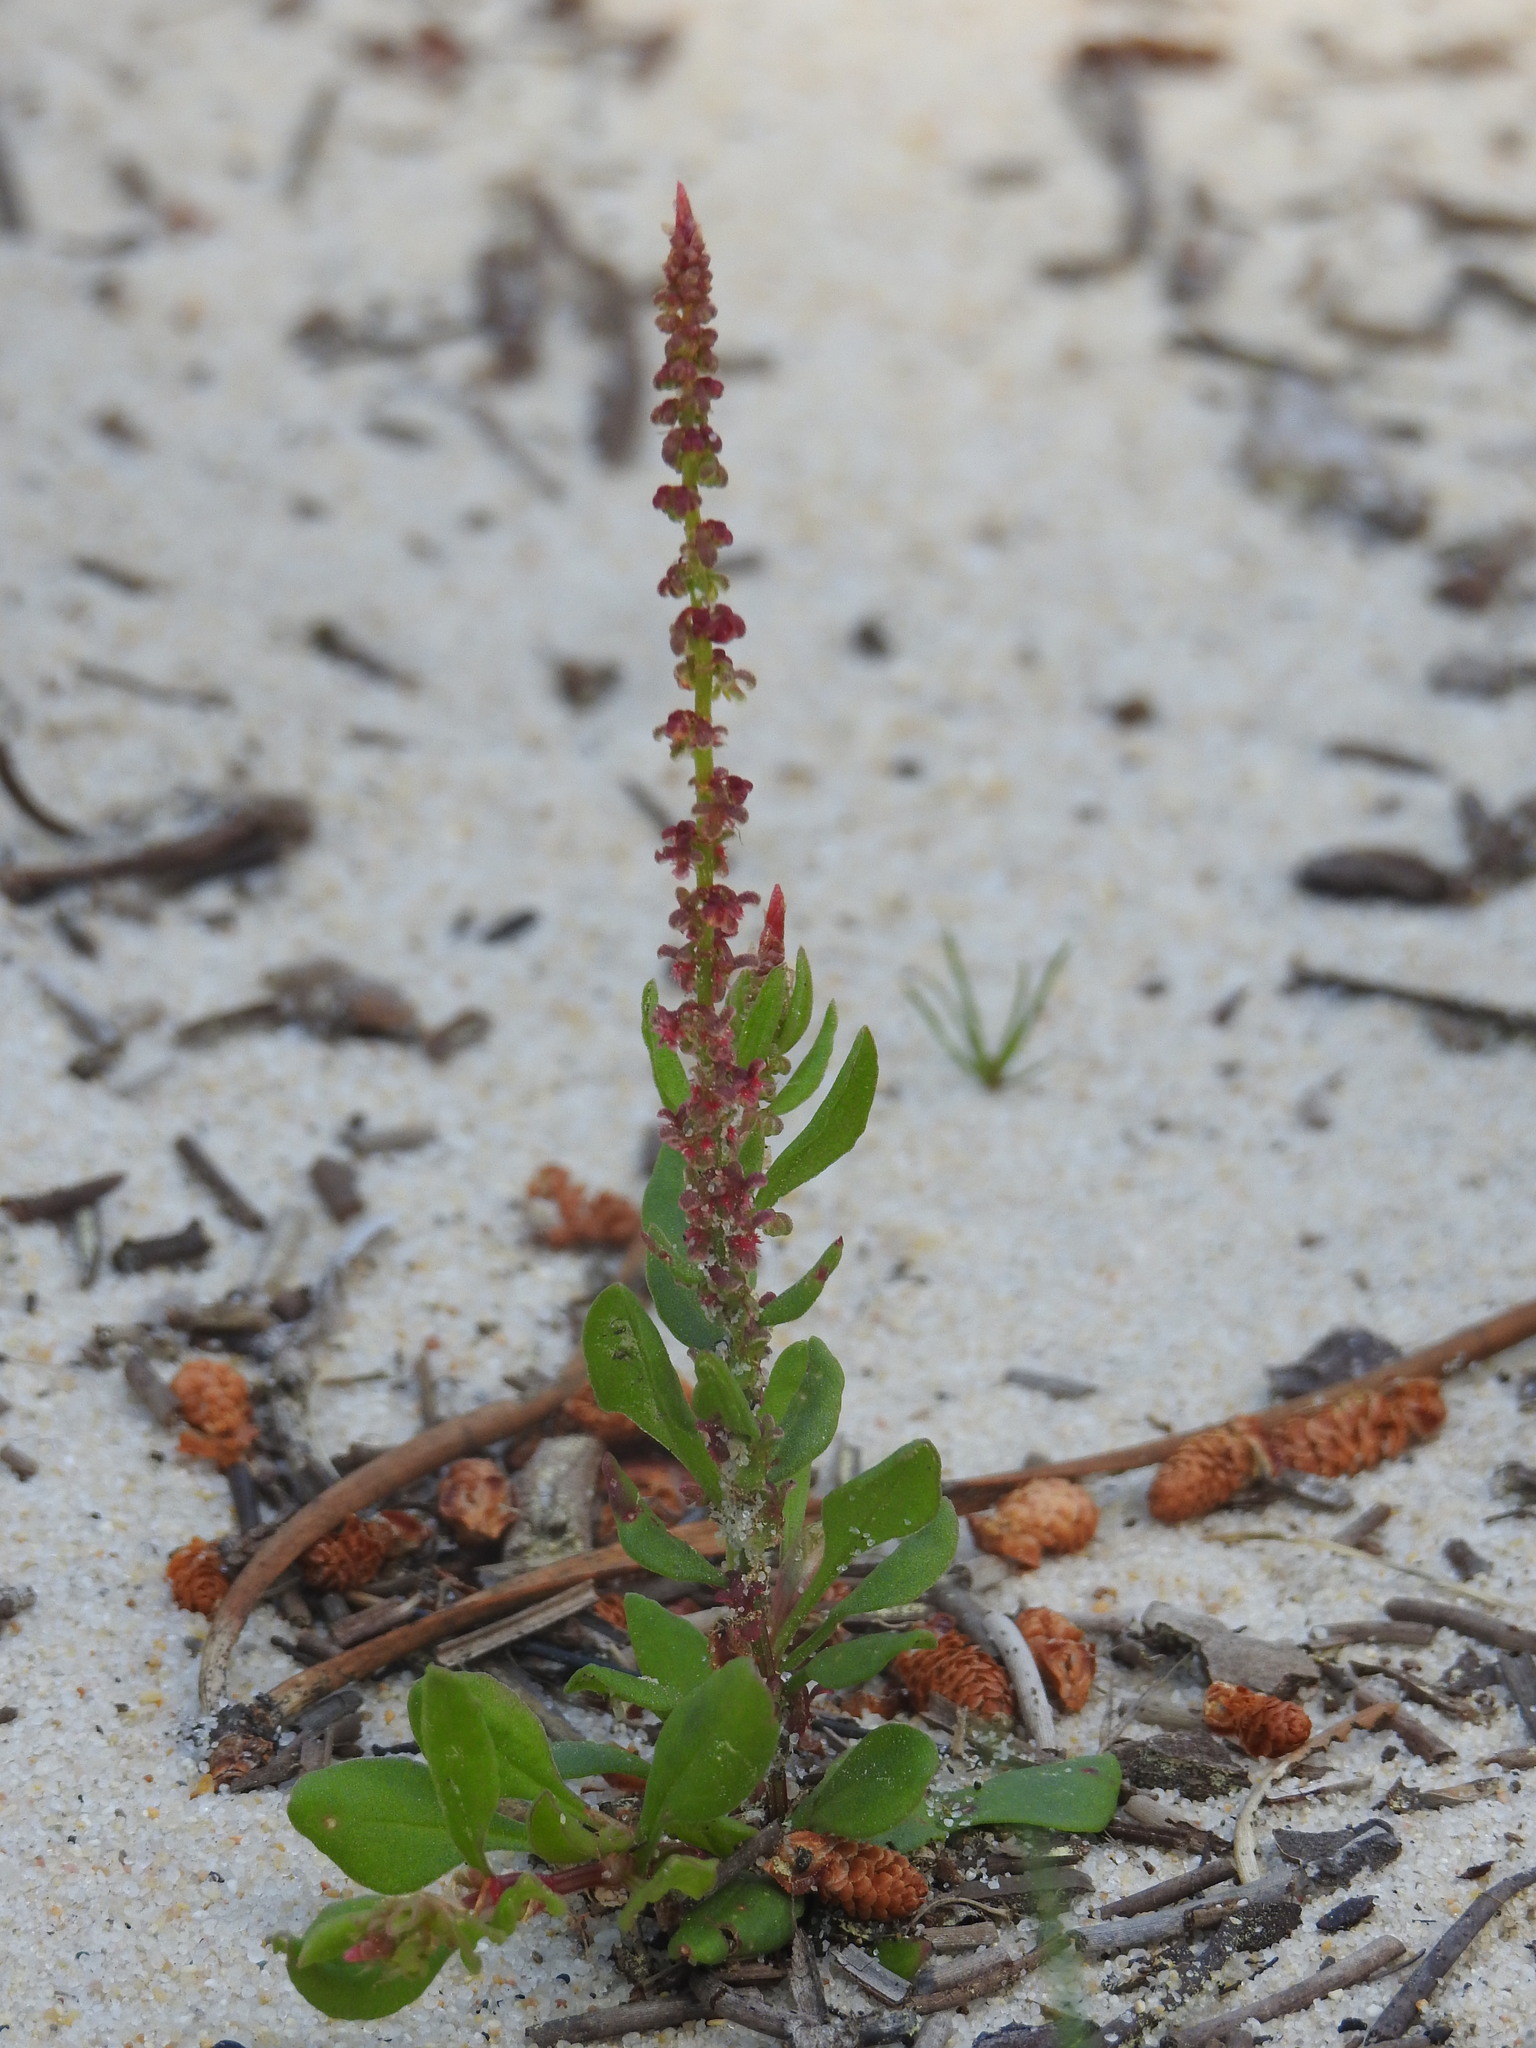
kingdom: Plantae
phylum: Tracheophyta
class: Magnoliopsida
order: Caryophyllales
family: Polygonaceae
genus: Rumex
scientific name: Rumex bucephalophorus
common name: Red dock
